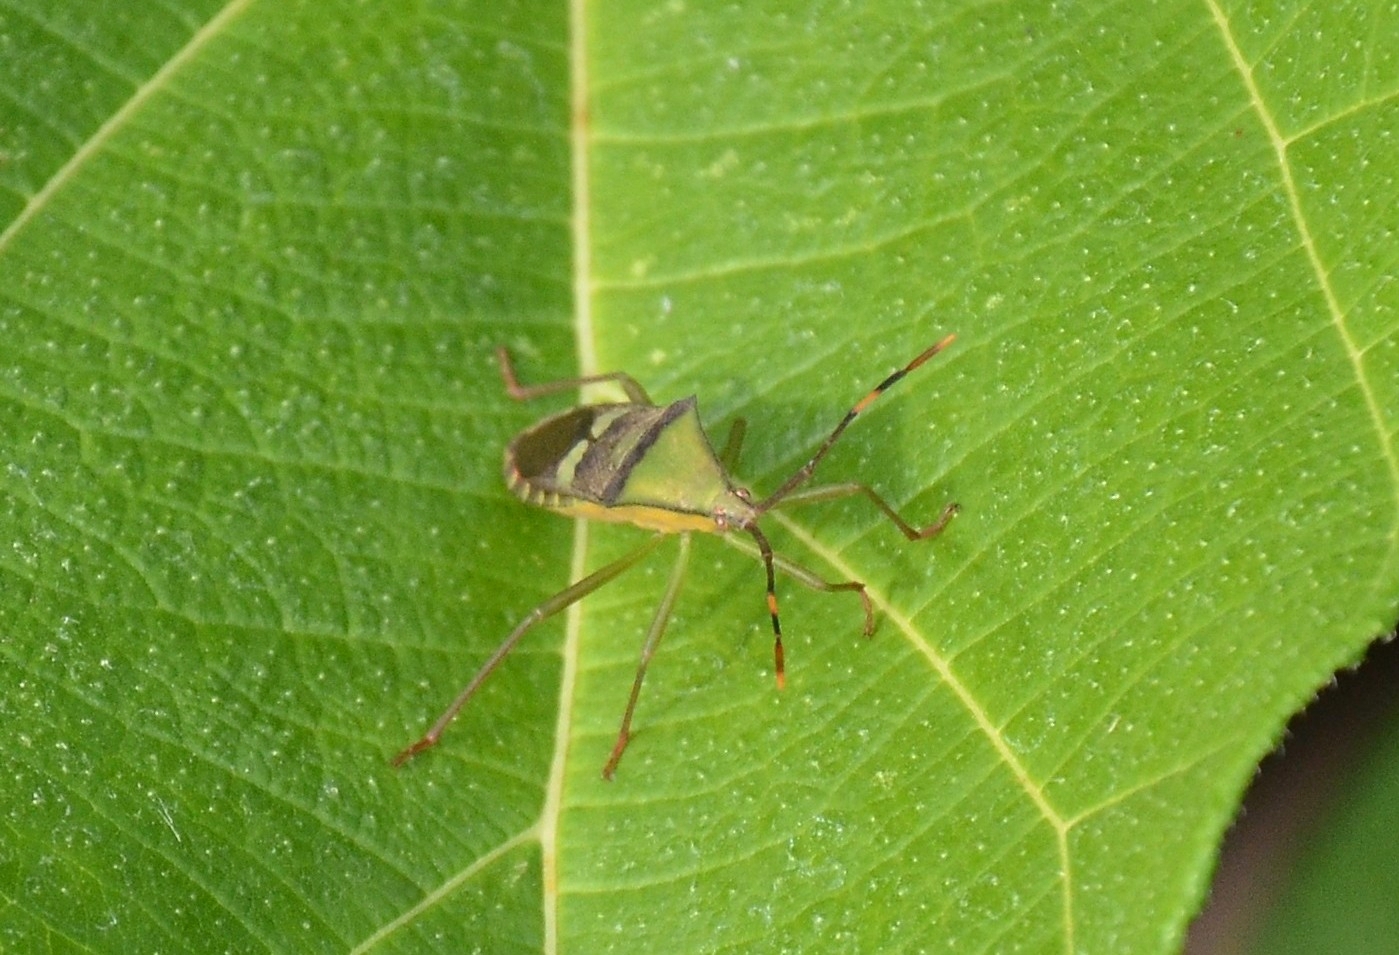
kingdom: Animalia
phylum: Arthropoda
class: Insecta
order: Hemiptera
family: Coreidae
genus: Prismatocerus
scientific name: Prismatocerus signatus
